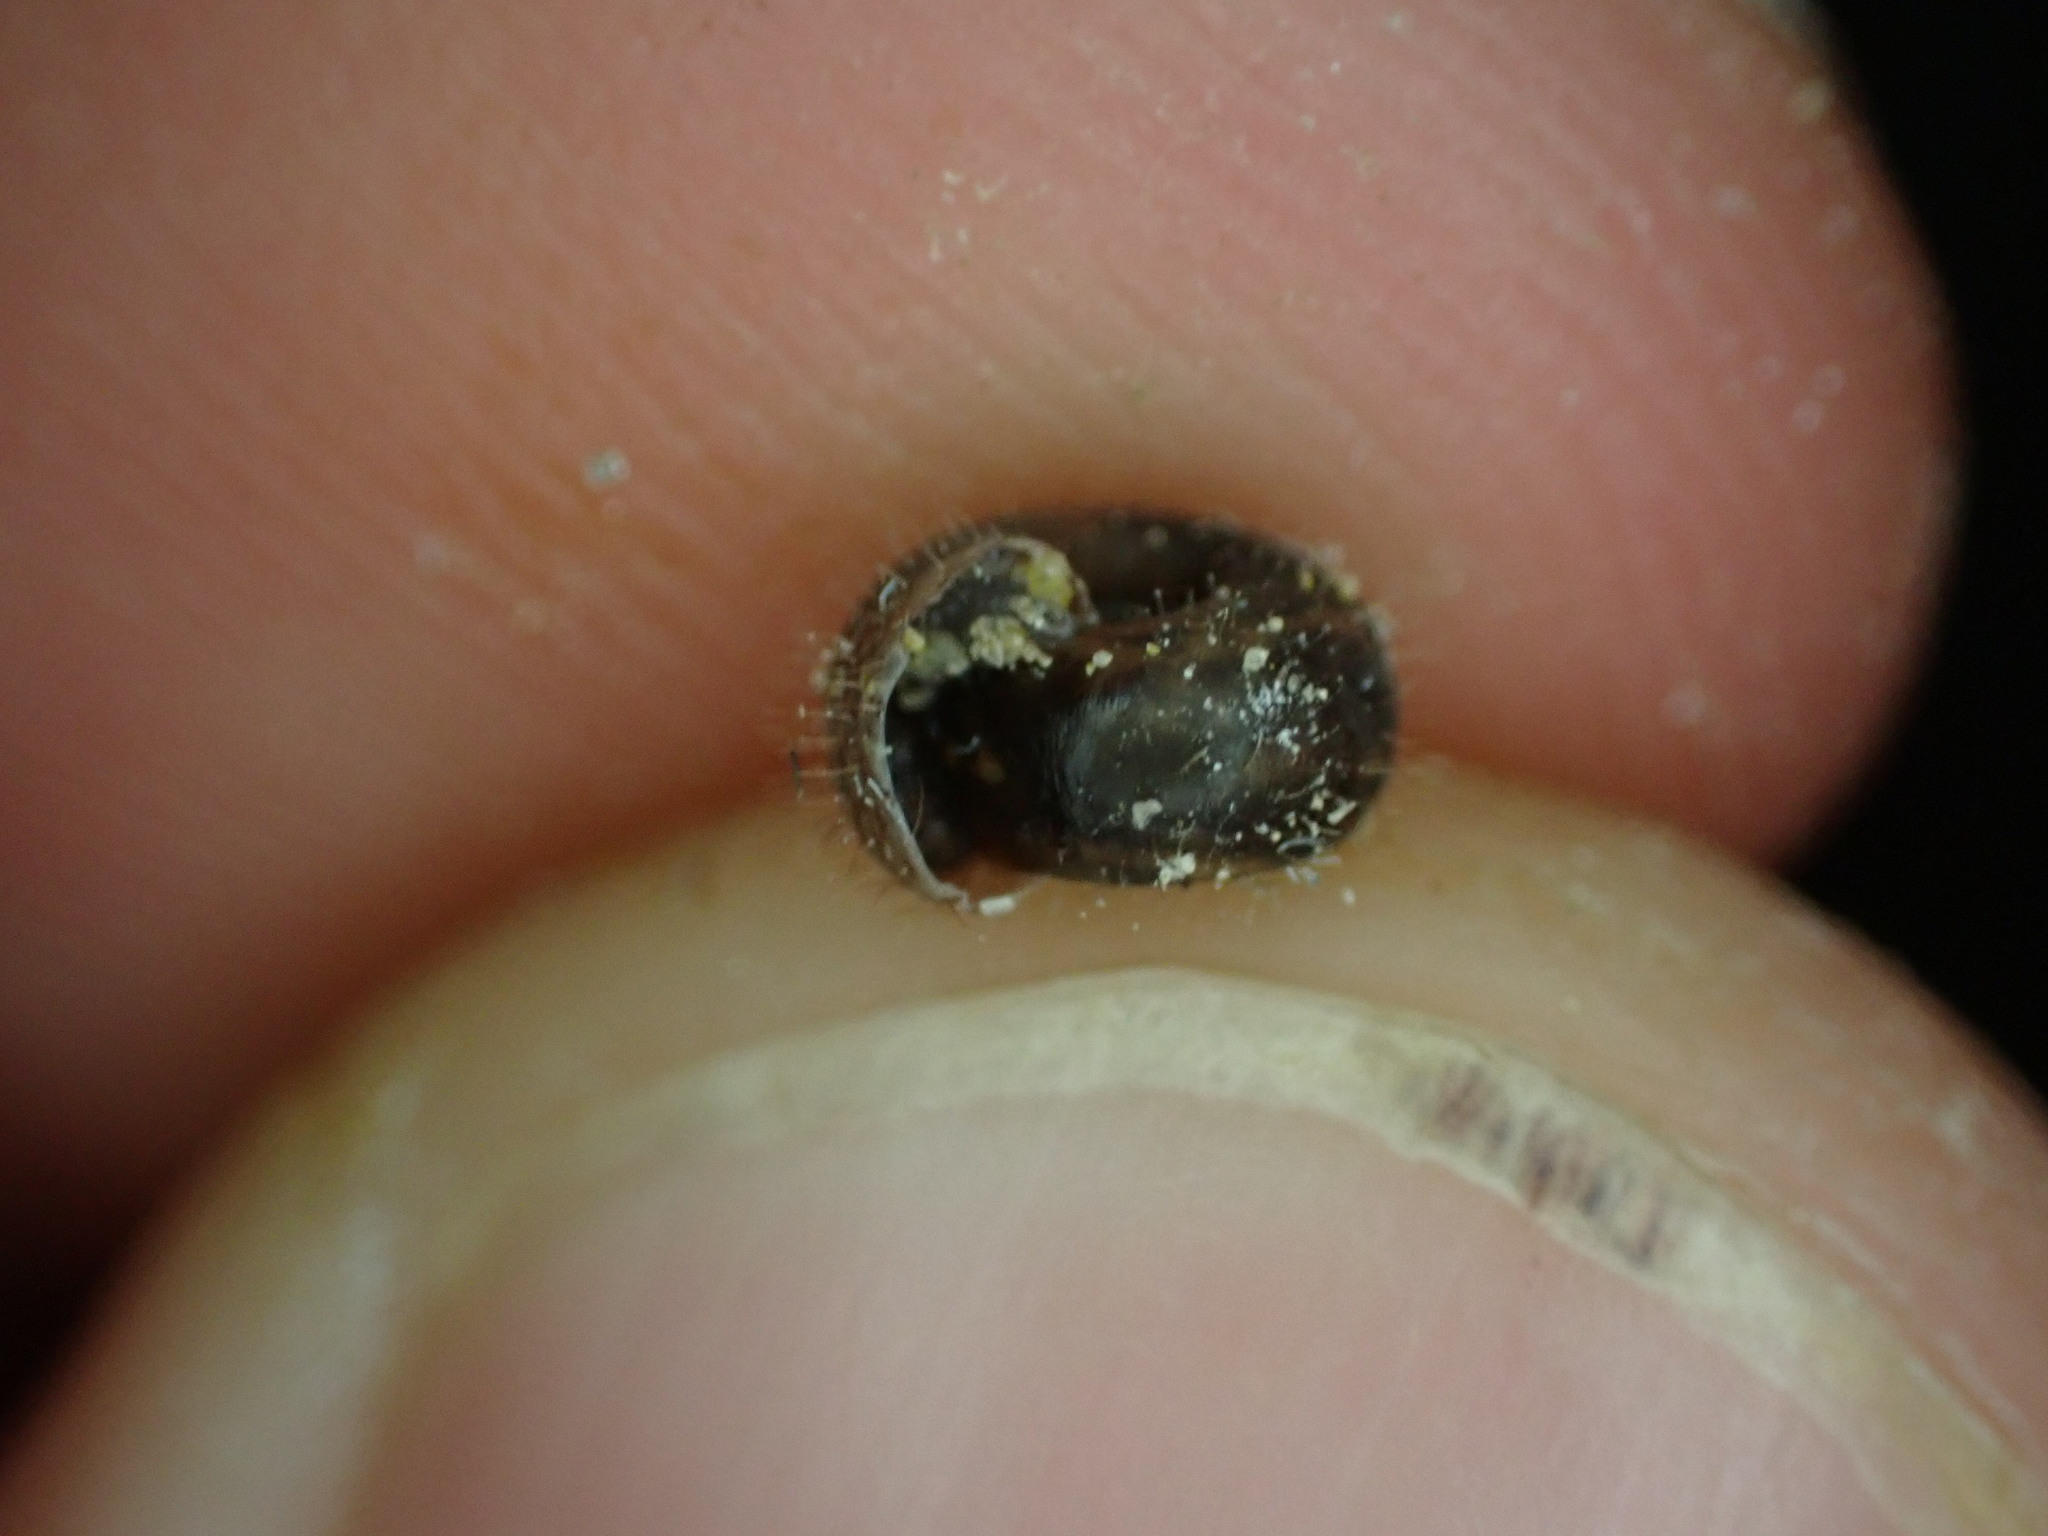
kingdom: Animalia
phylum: Mollusca
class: Gastropoda
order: Stylommatophora
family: Helicodontidae
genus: Helicodonta
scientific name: Helicodonta obvoluta
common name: Cheese snail
